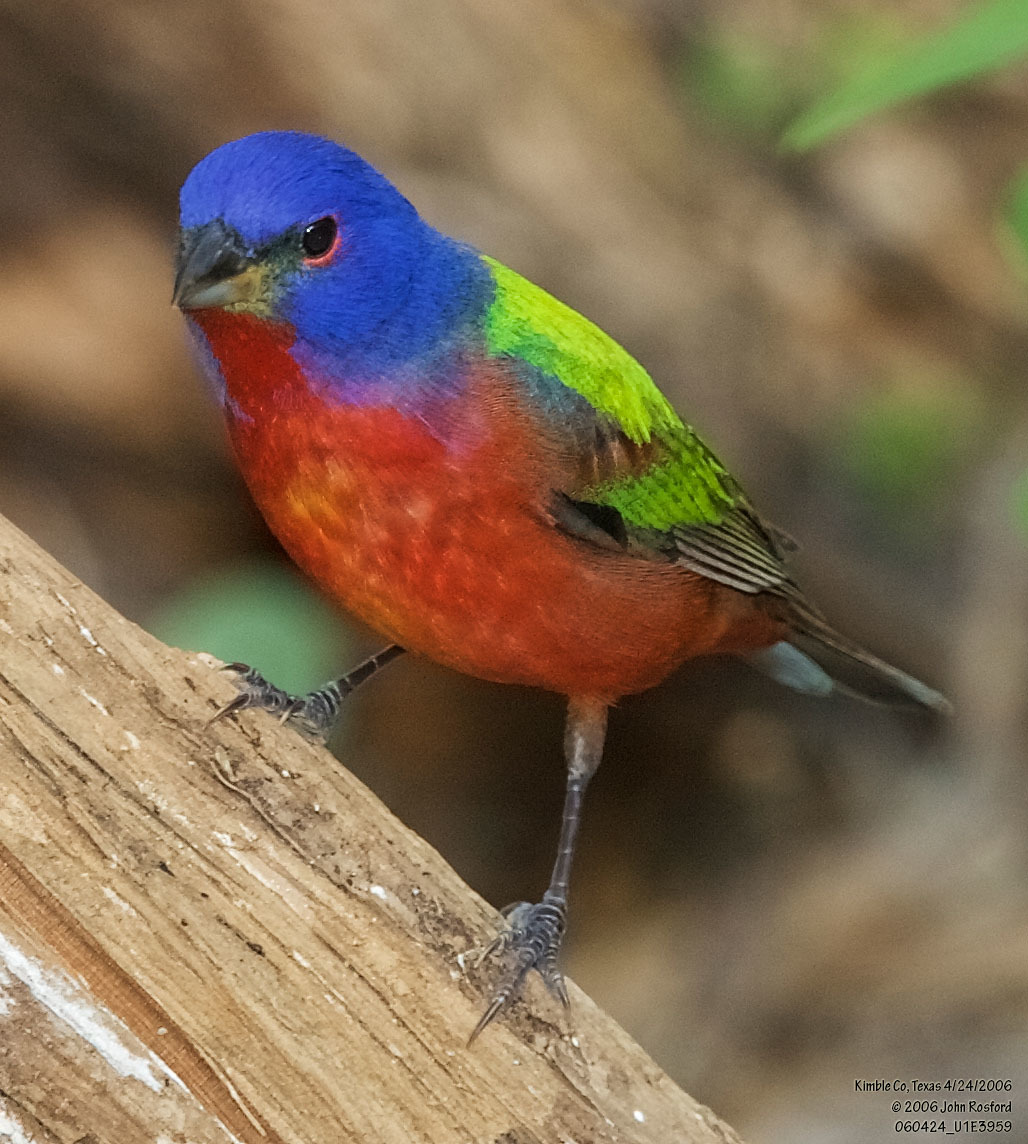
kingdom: Animalia
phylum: Chordata
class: Aves
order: Passeriformes
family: Cardinalidae
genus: Passerina
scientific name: Passerina ciris
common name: Painted bunting
